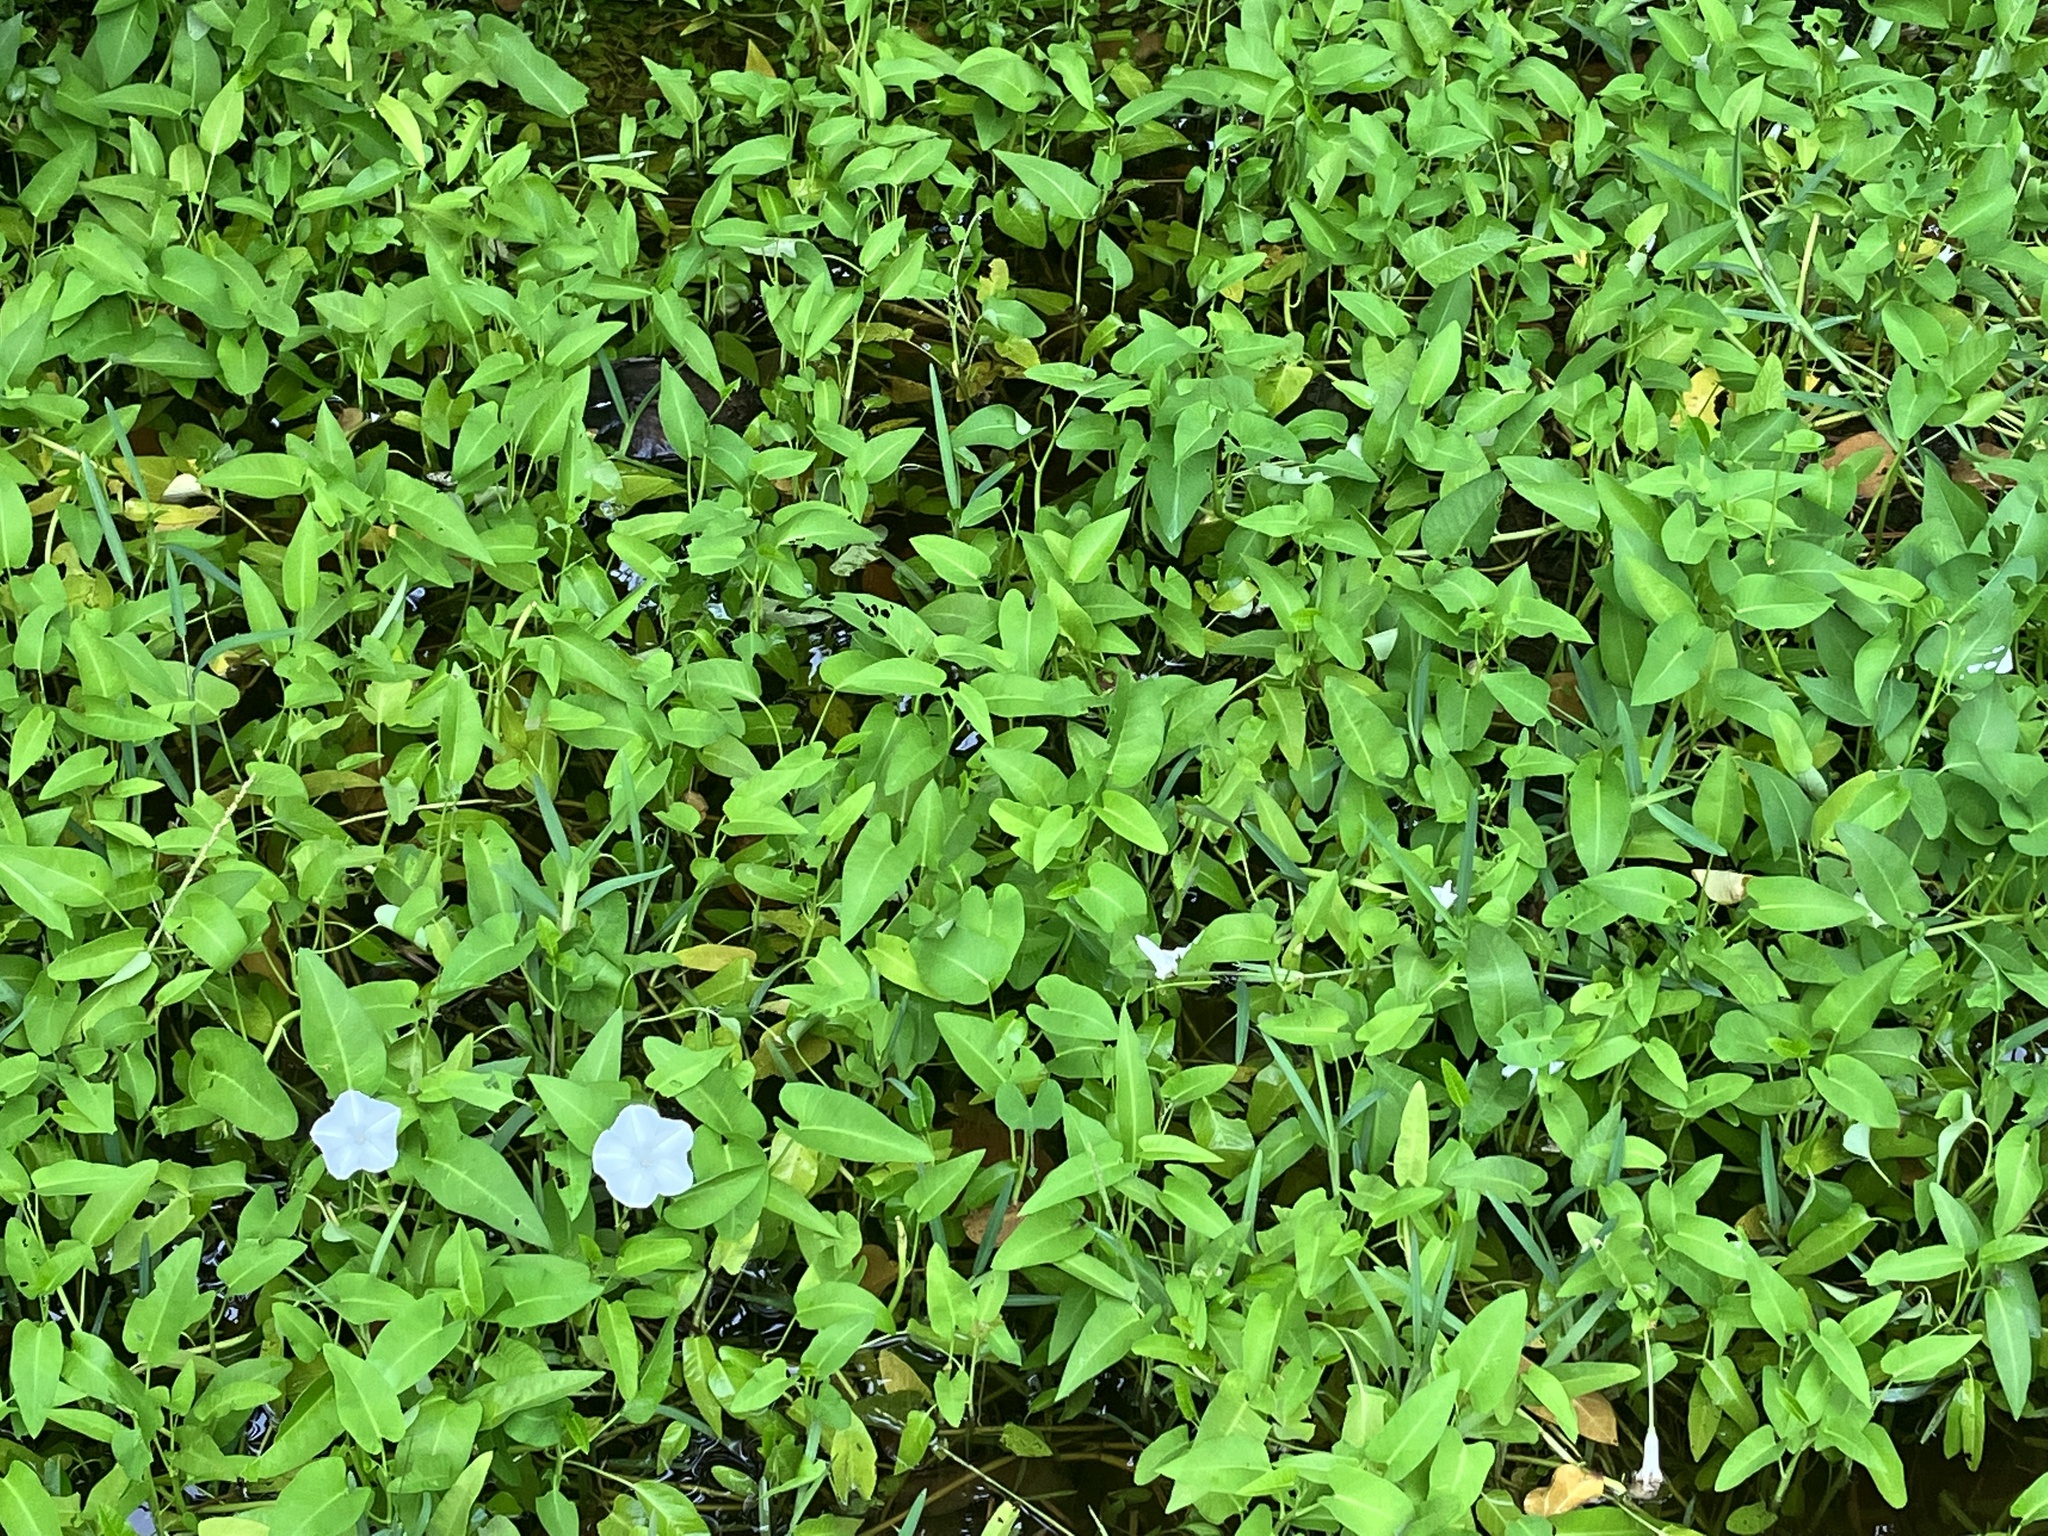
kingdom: Plantae
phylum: Tracheophyta
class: Magnoliopsida
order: Solanales
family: Convolvulaceae
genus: Ipomoea
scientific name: Ipomoea aquatica
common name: Swamp morning-glory
